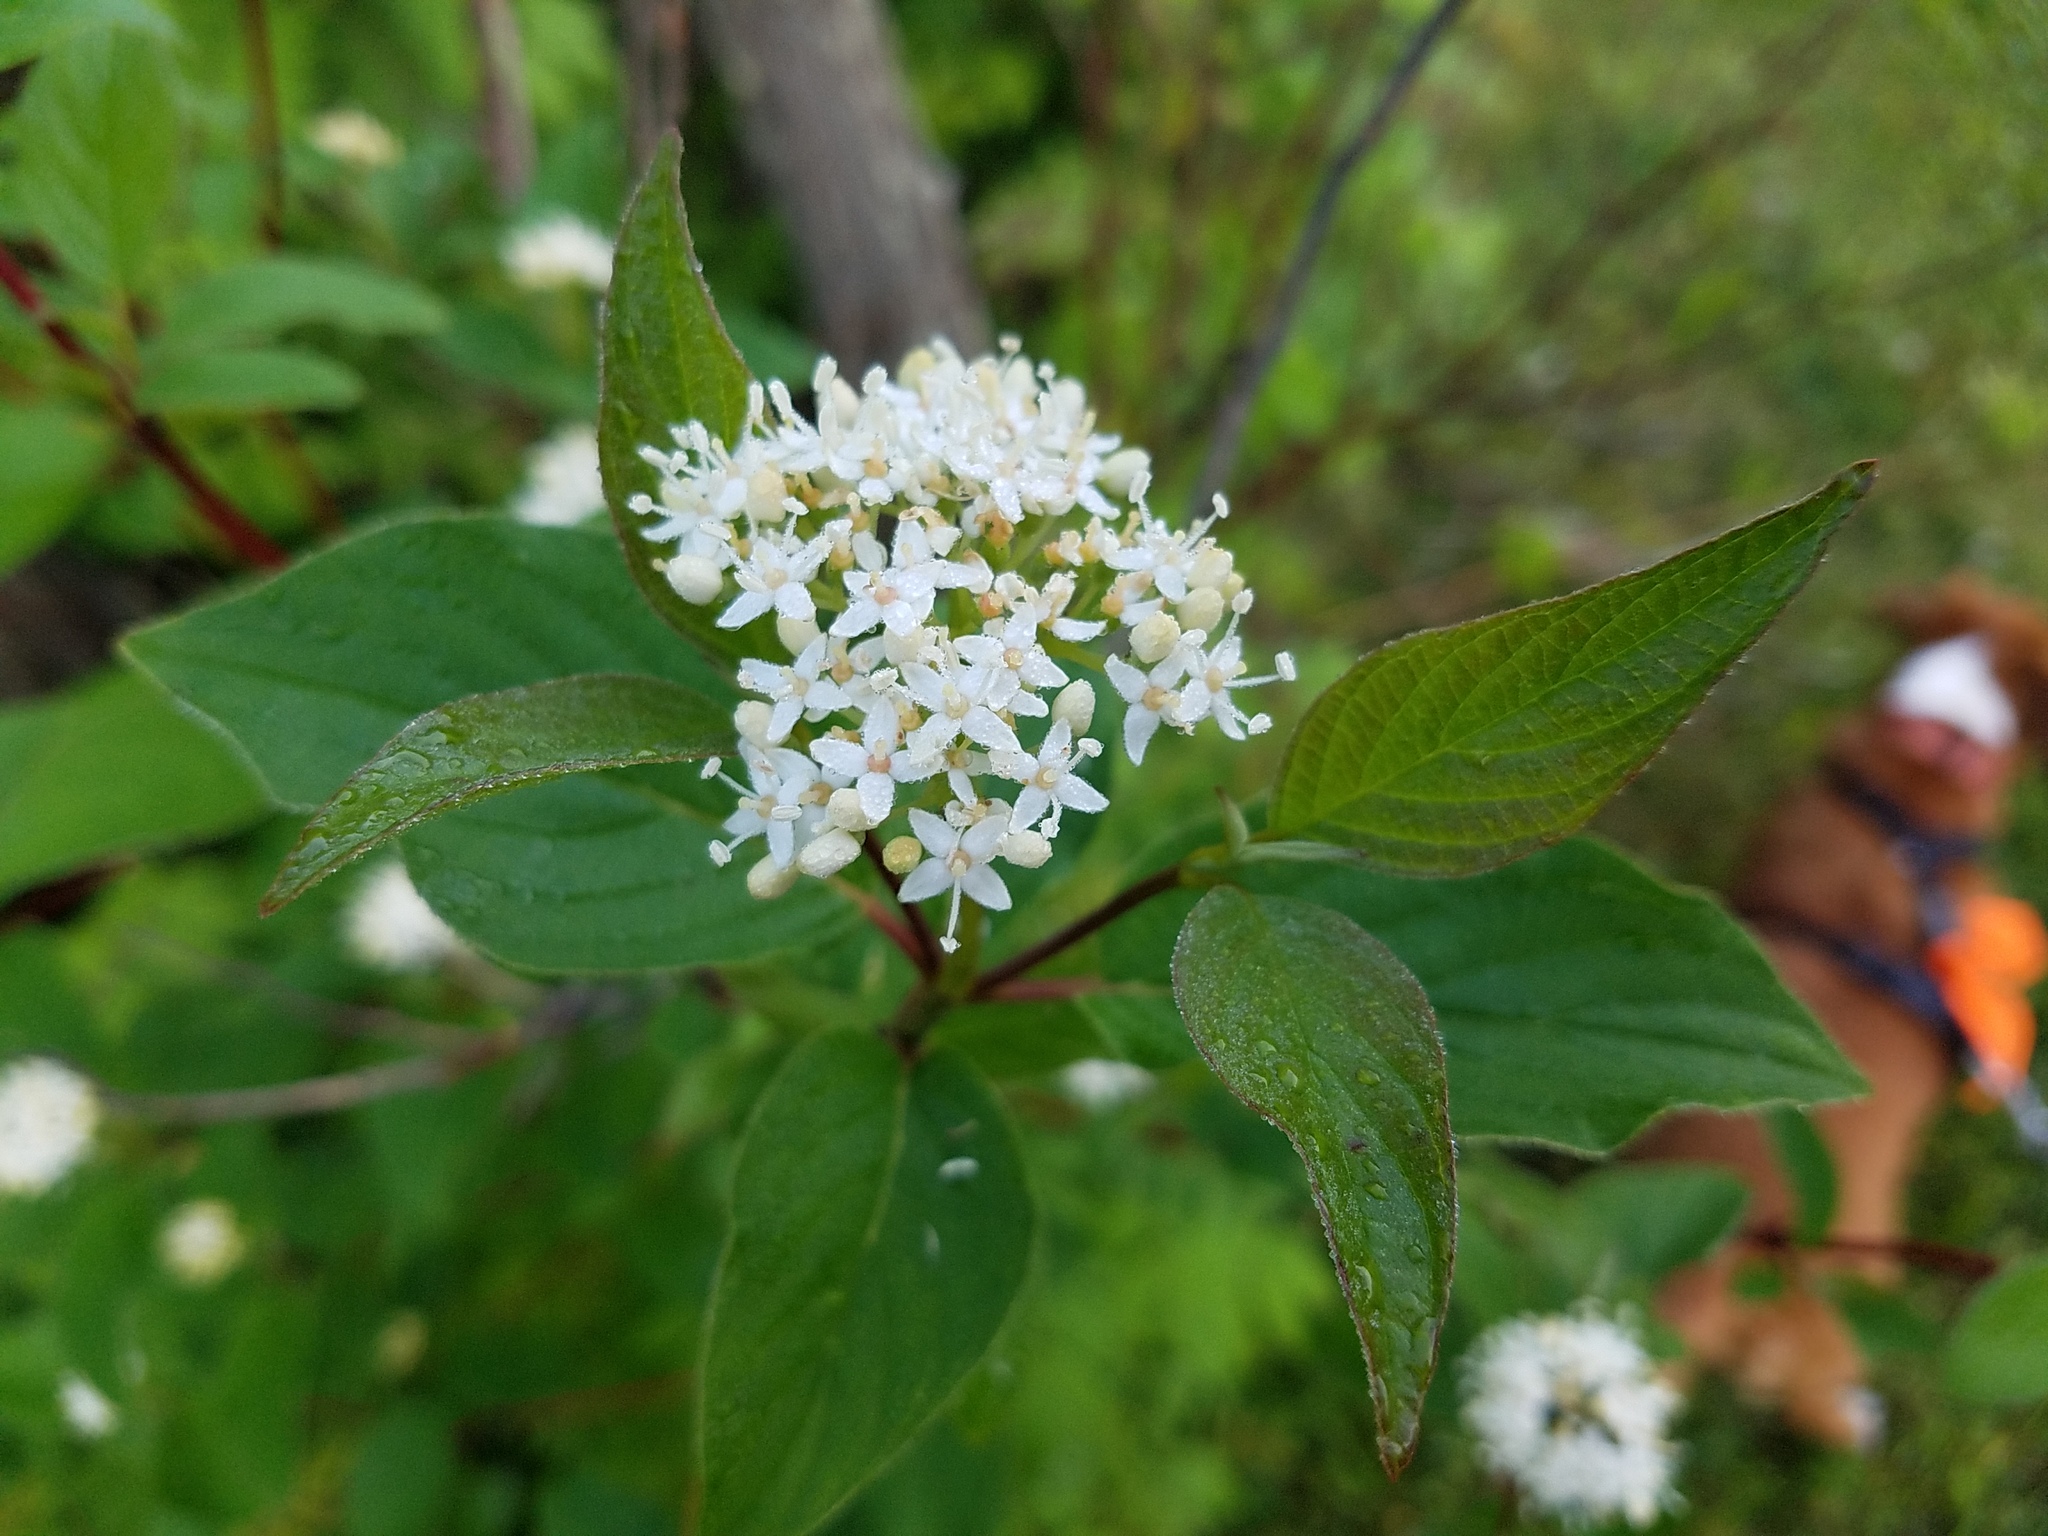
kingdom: Plantae
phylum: Tracheophyta
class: Magnoliopsida
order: Cornales
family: Cornaceae
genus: Cornus
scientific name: Cornus sericea
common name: Red-osier dogwood
